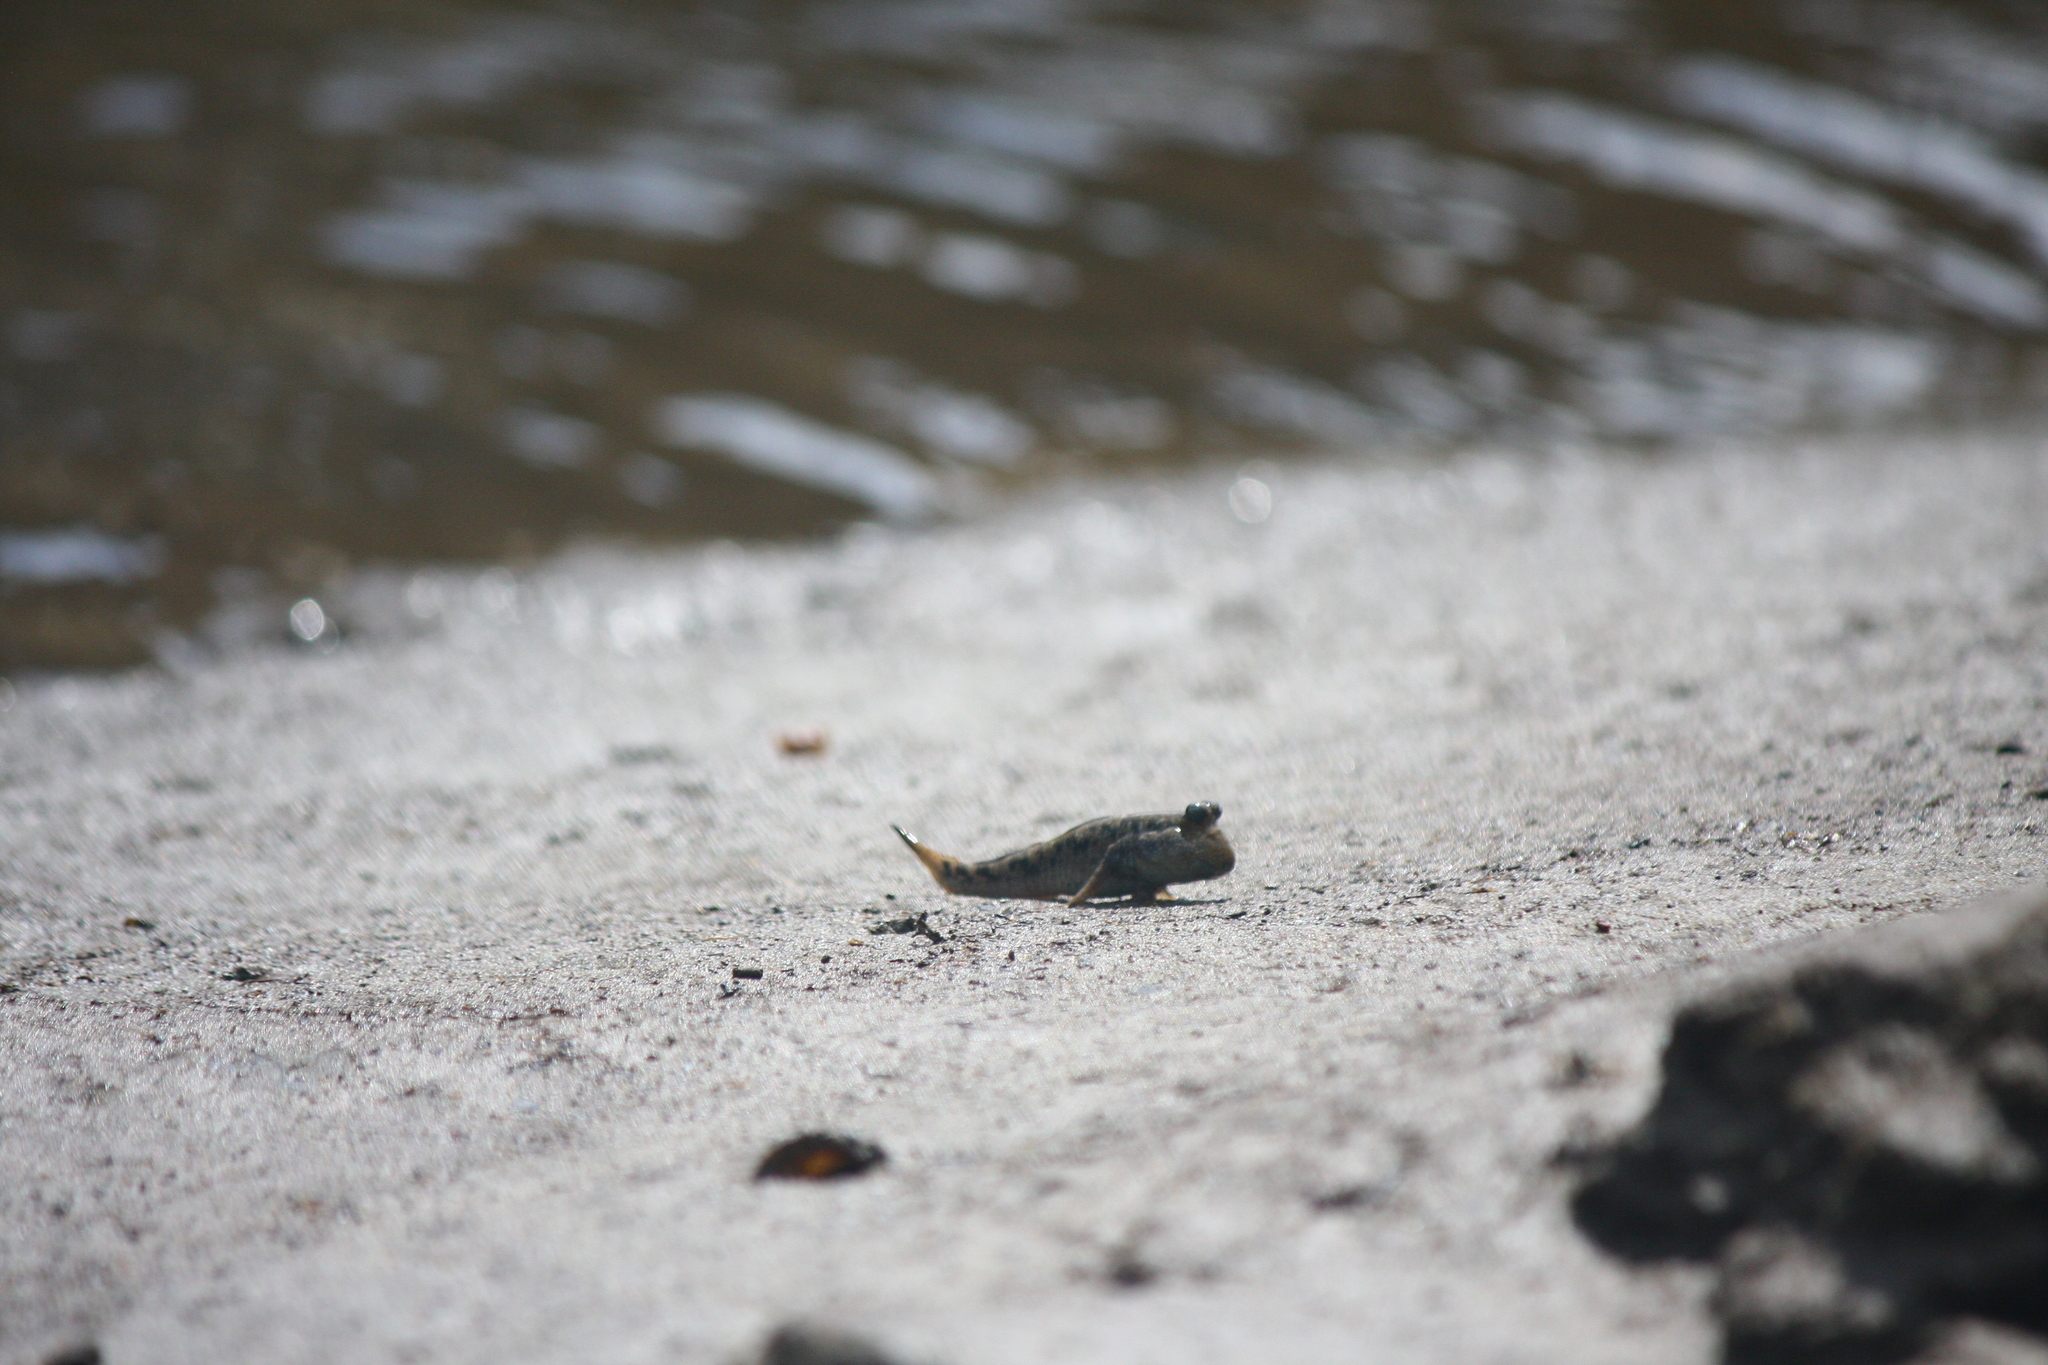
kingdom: Animalia
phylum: Chordata
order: Perciformes
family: Gobiidae
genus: Periophthalmus
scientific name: Periophthalmus argentilineatus
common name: Barred mudskipper
